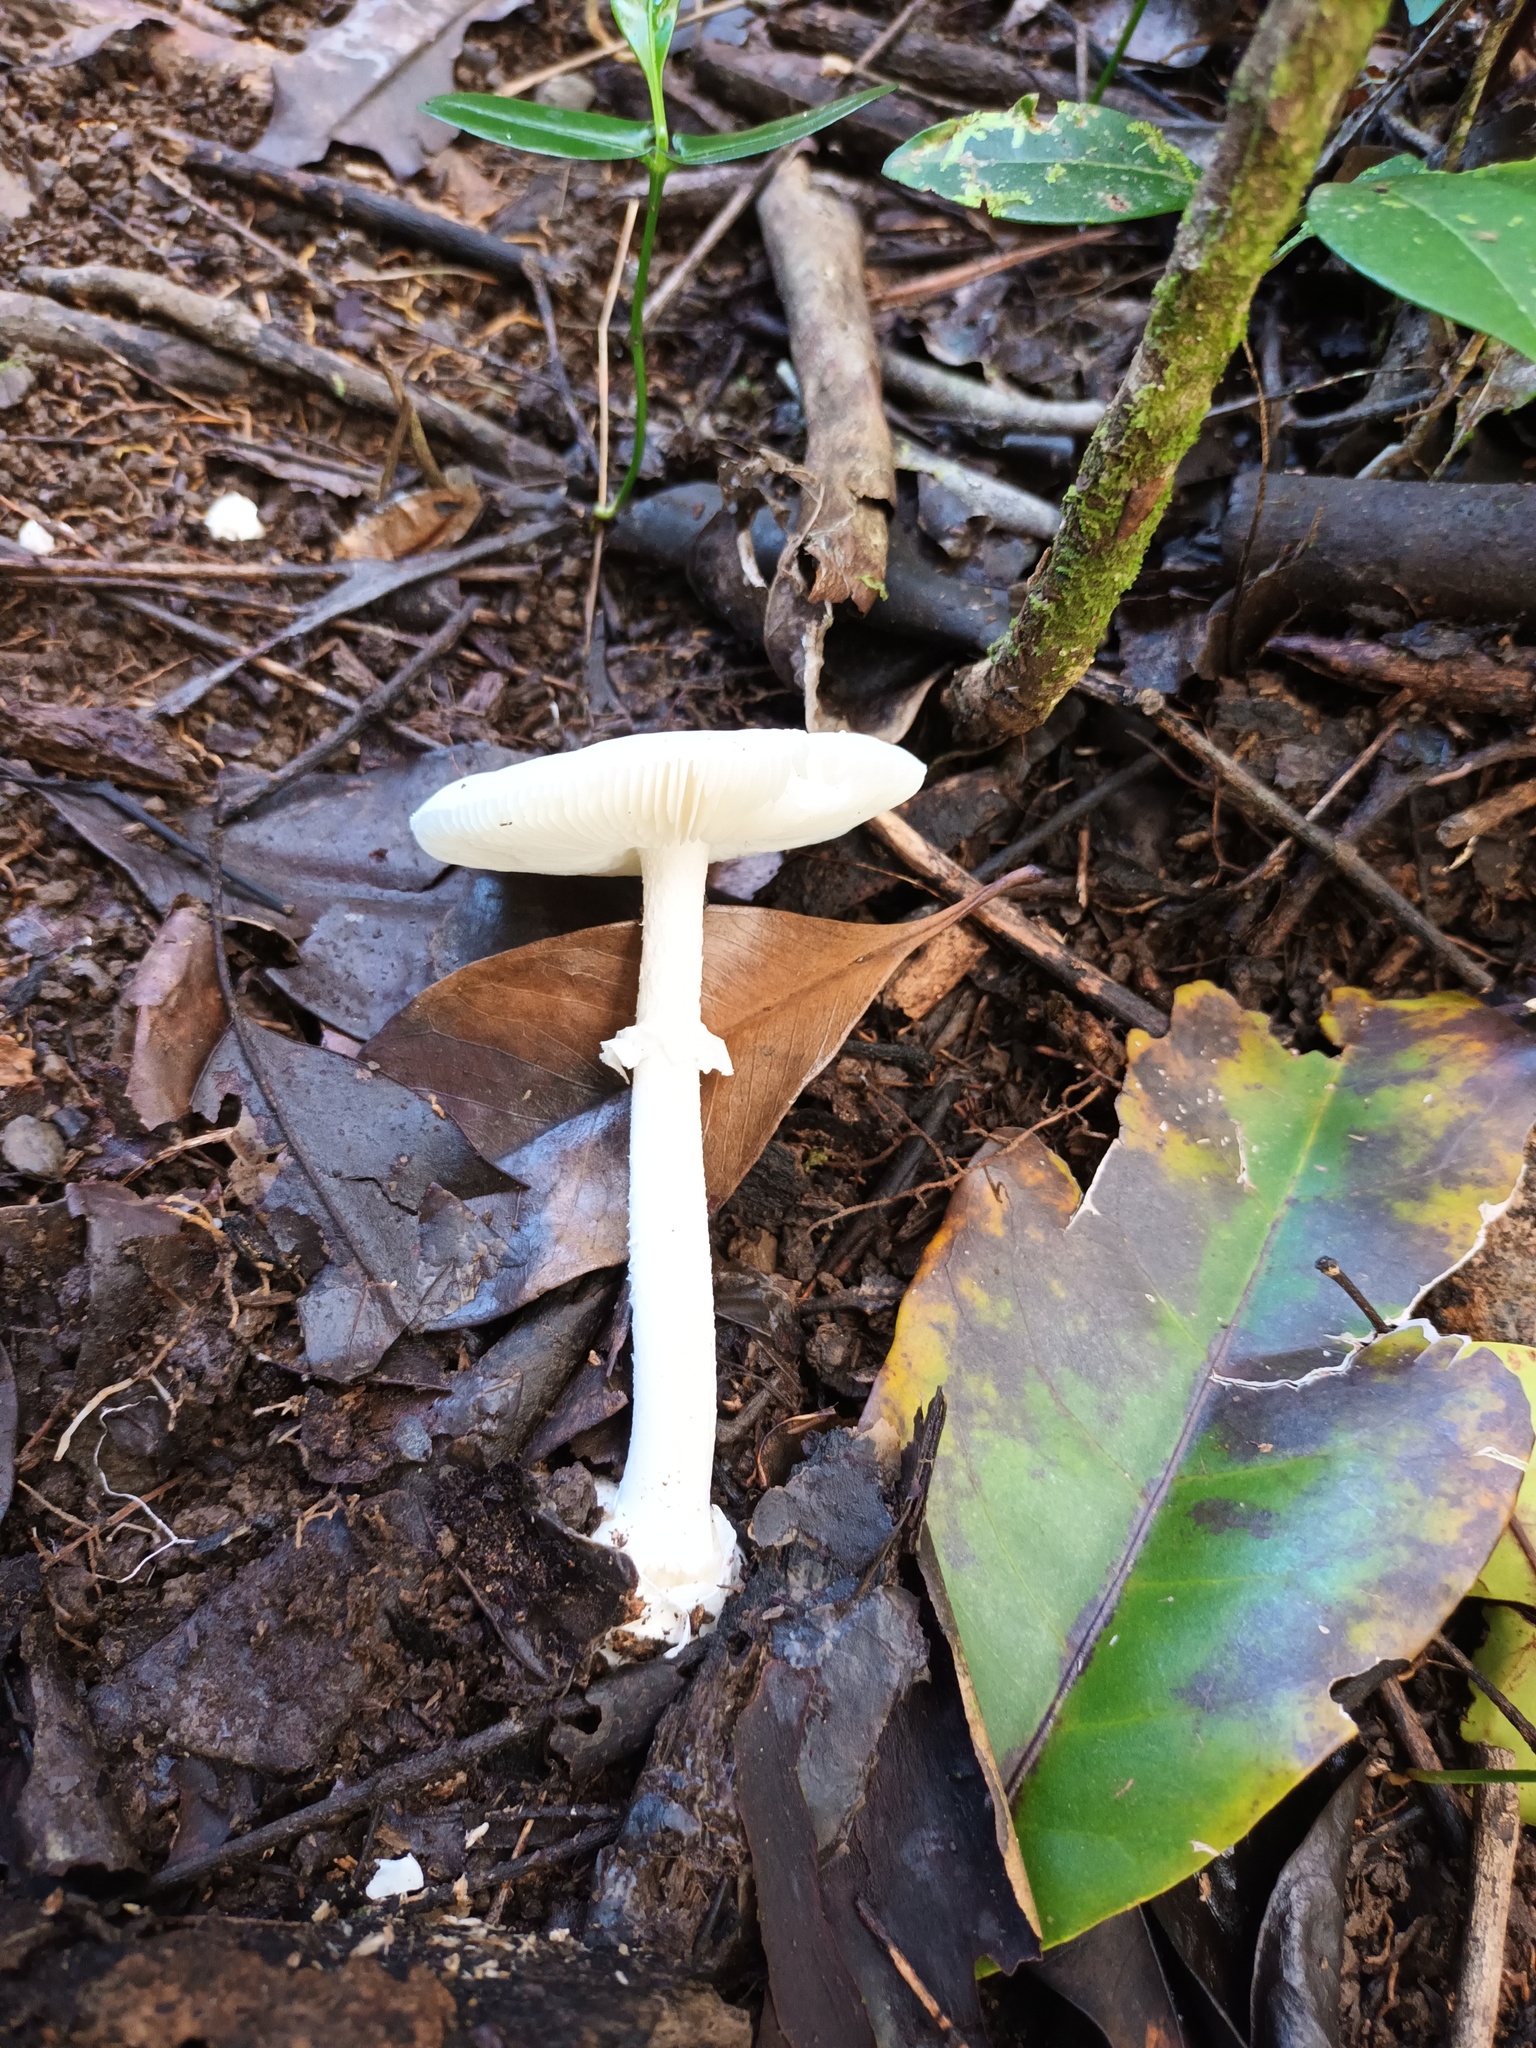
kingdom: Fungi
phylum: Basidiomycota
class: Agaricomycetes
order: Agaricales
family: Amanitaceae
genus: Amanita
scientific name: Amanita marmorata
